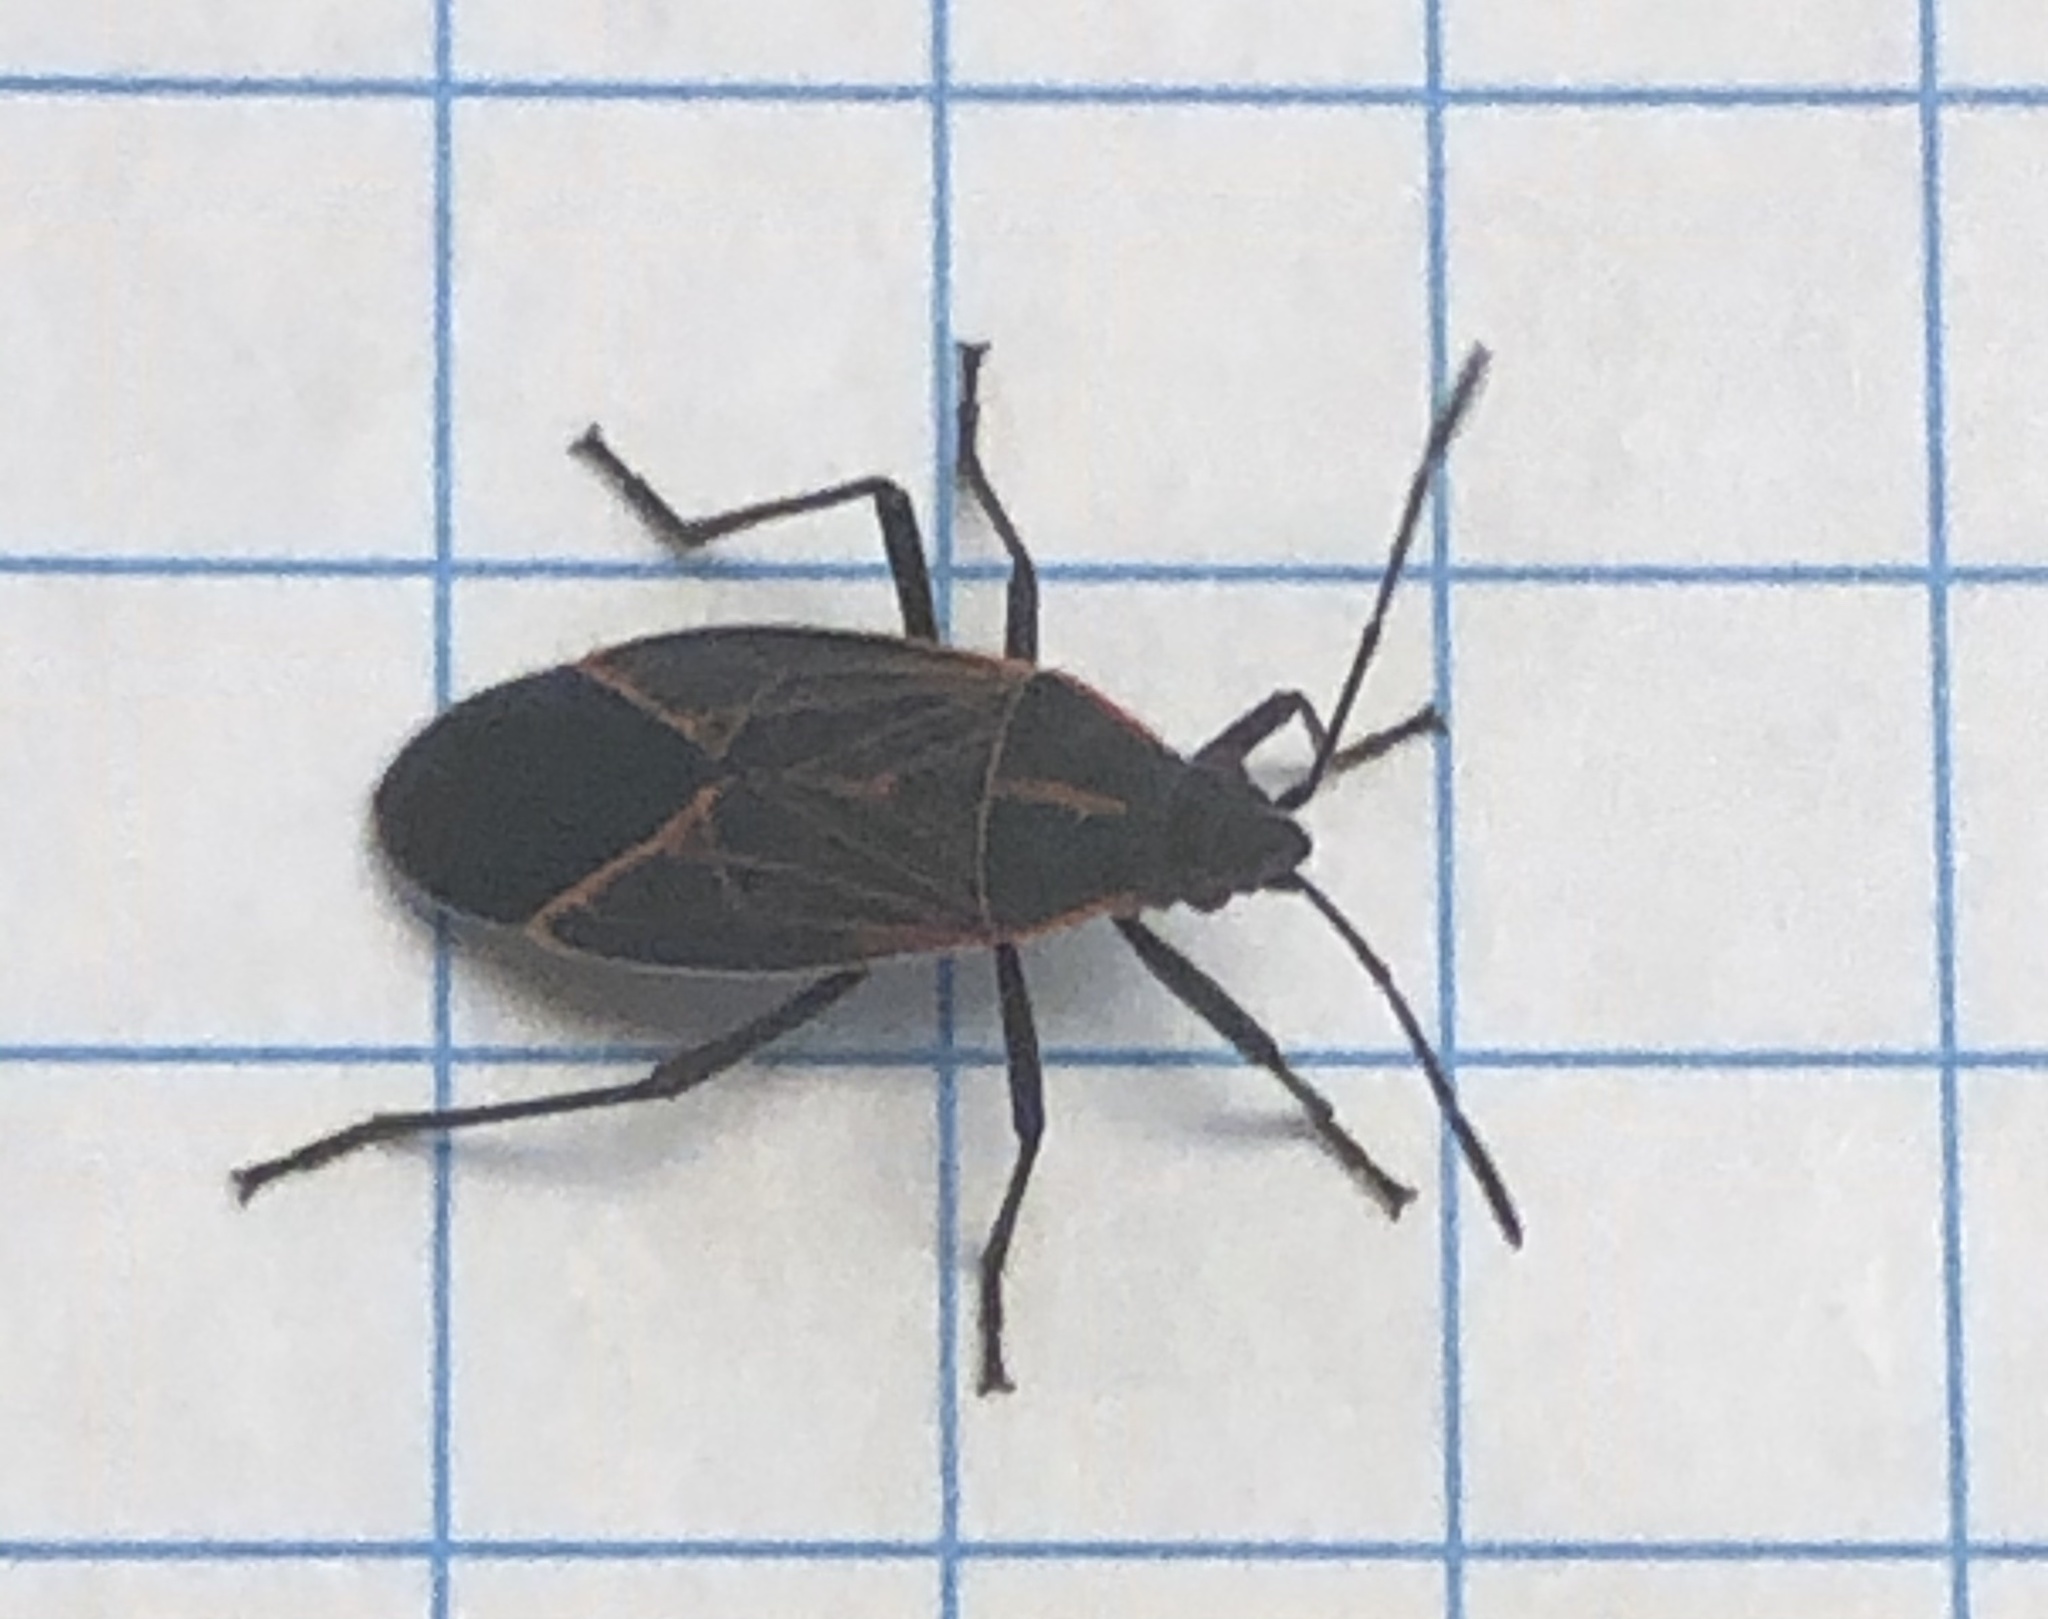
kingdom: Animalia
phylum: Arthropoda
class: Insecta
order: Hemiptera
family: Rhopalidae
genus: Boisea
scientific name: Boisea rubrolineata
